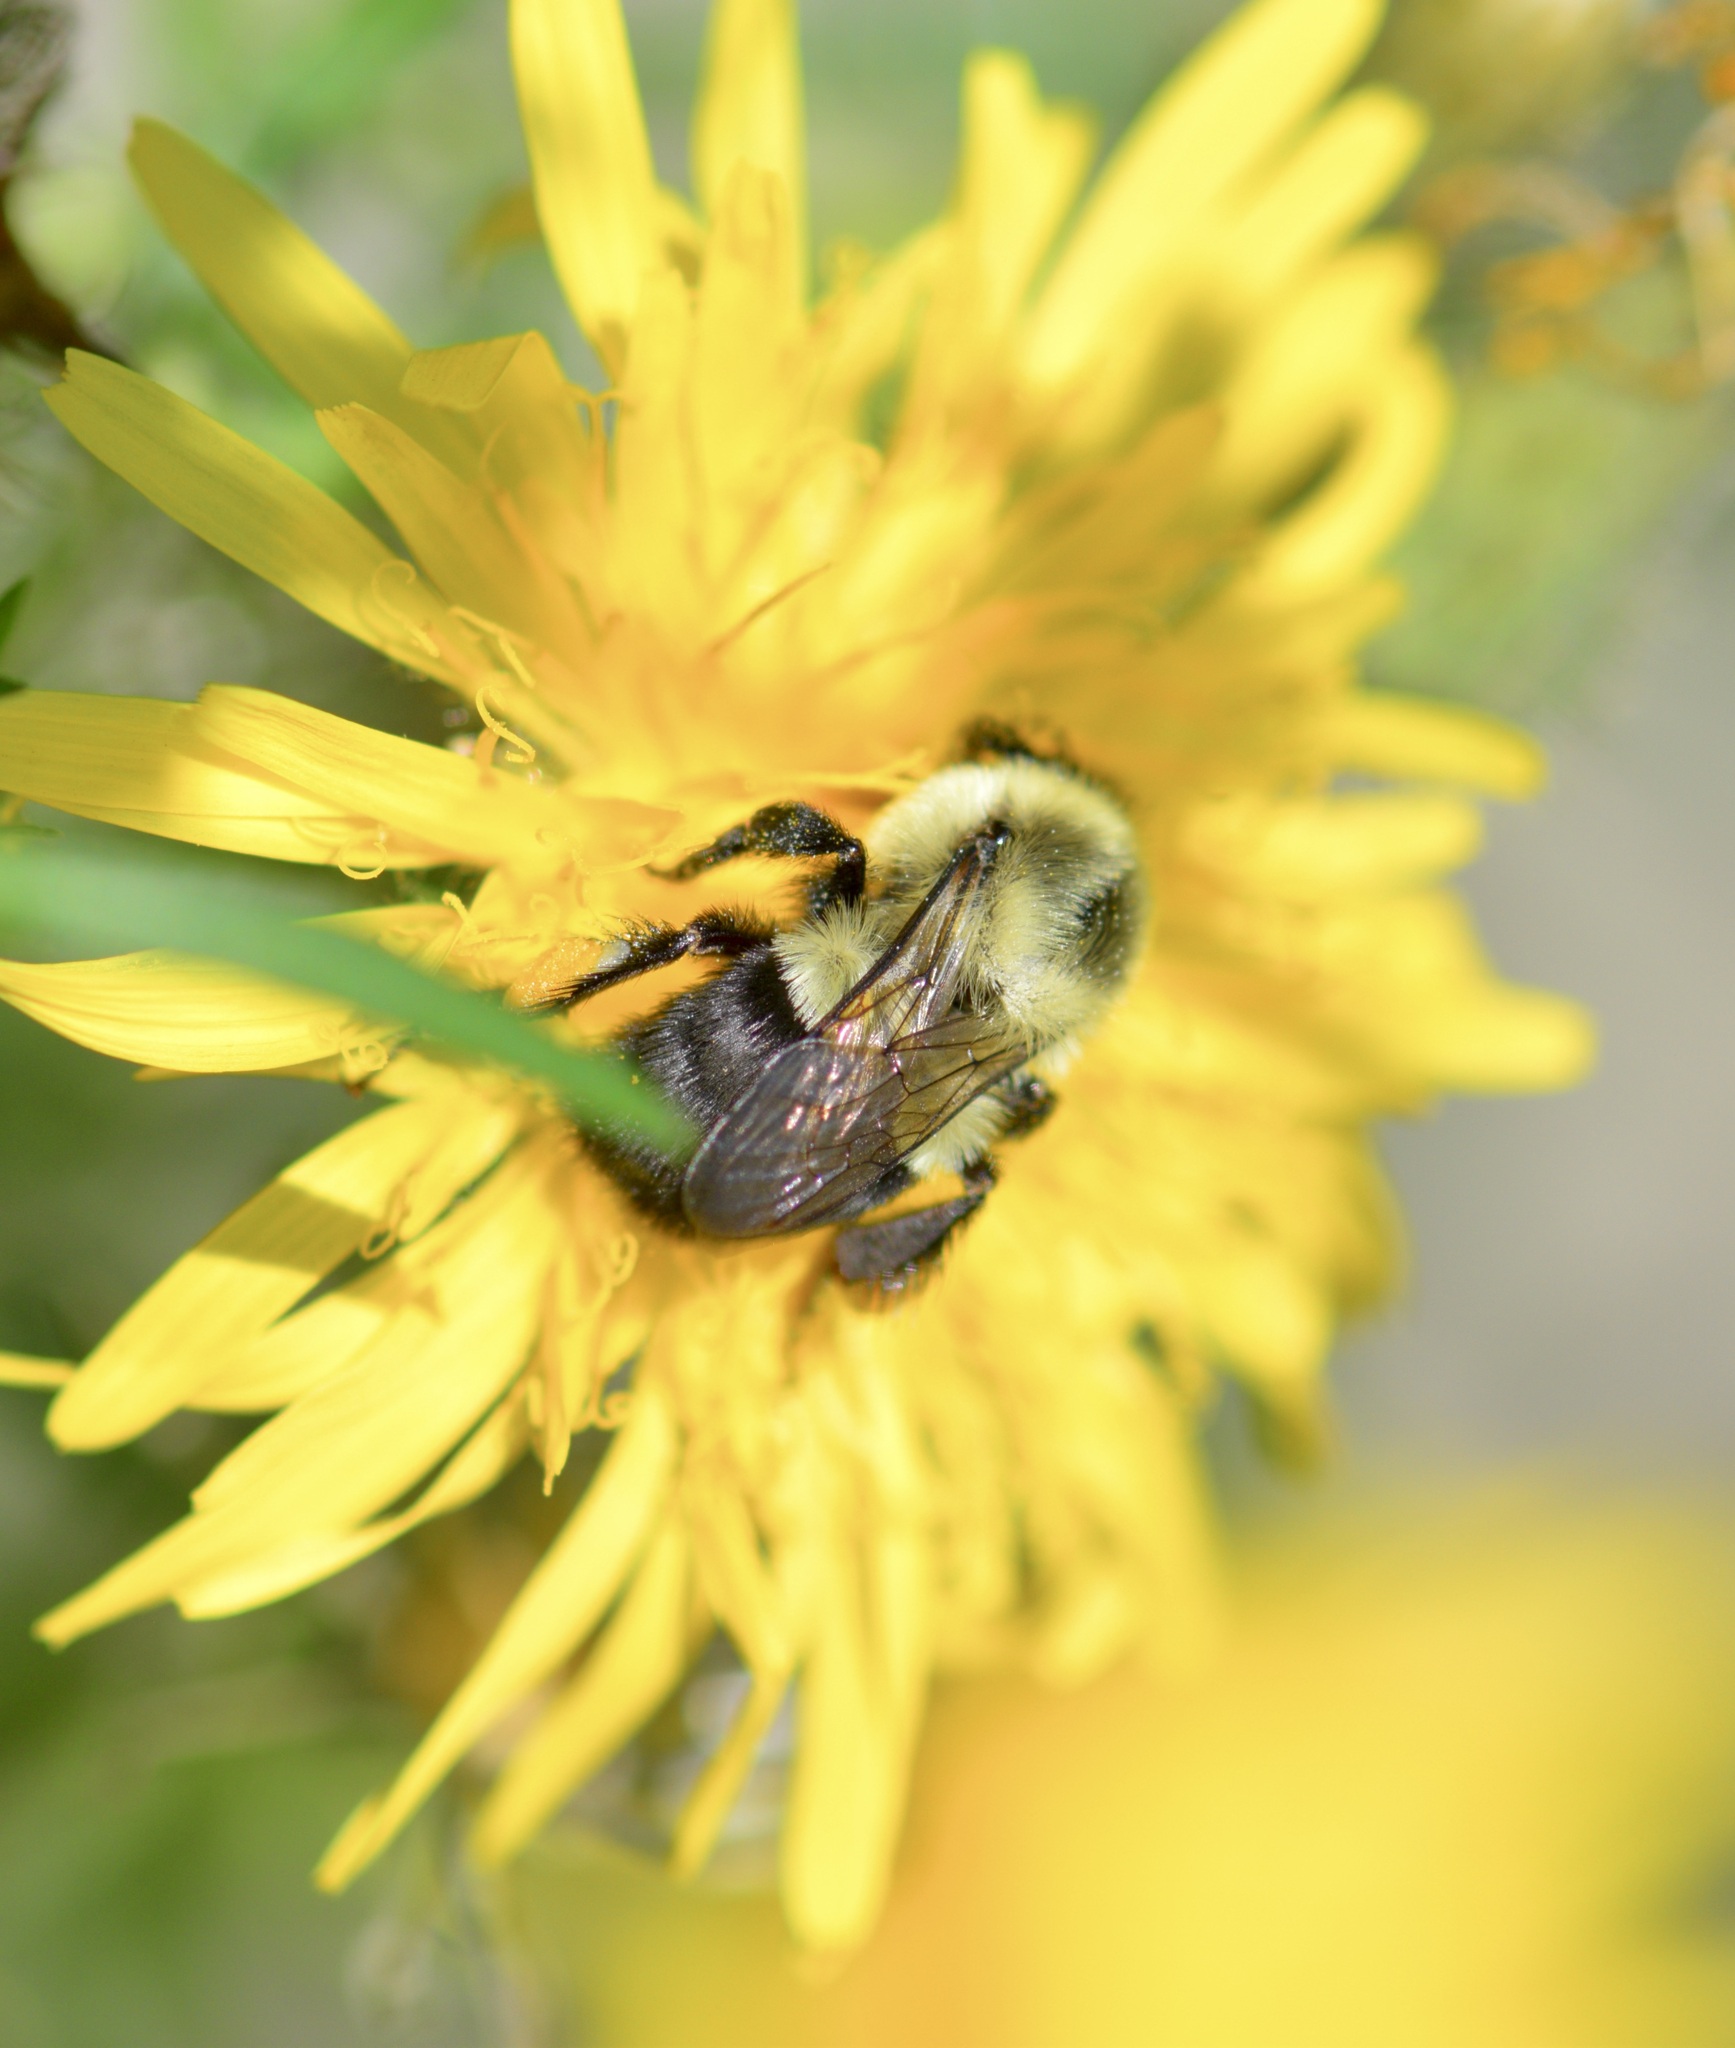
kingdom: Animalia
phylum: Arthropoda
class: Insecta
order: Hymenoptera
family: Apidae
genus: Bombus
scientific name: Bombus impatiens
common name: Common eastern bumble bee
